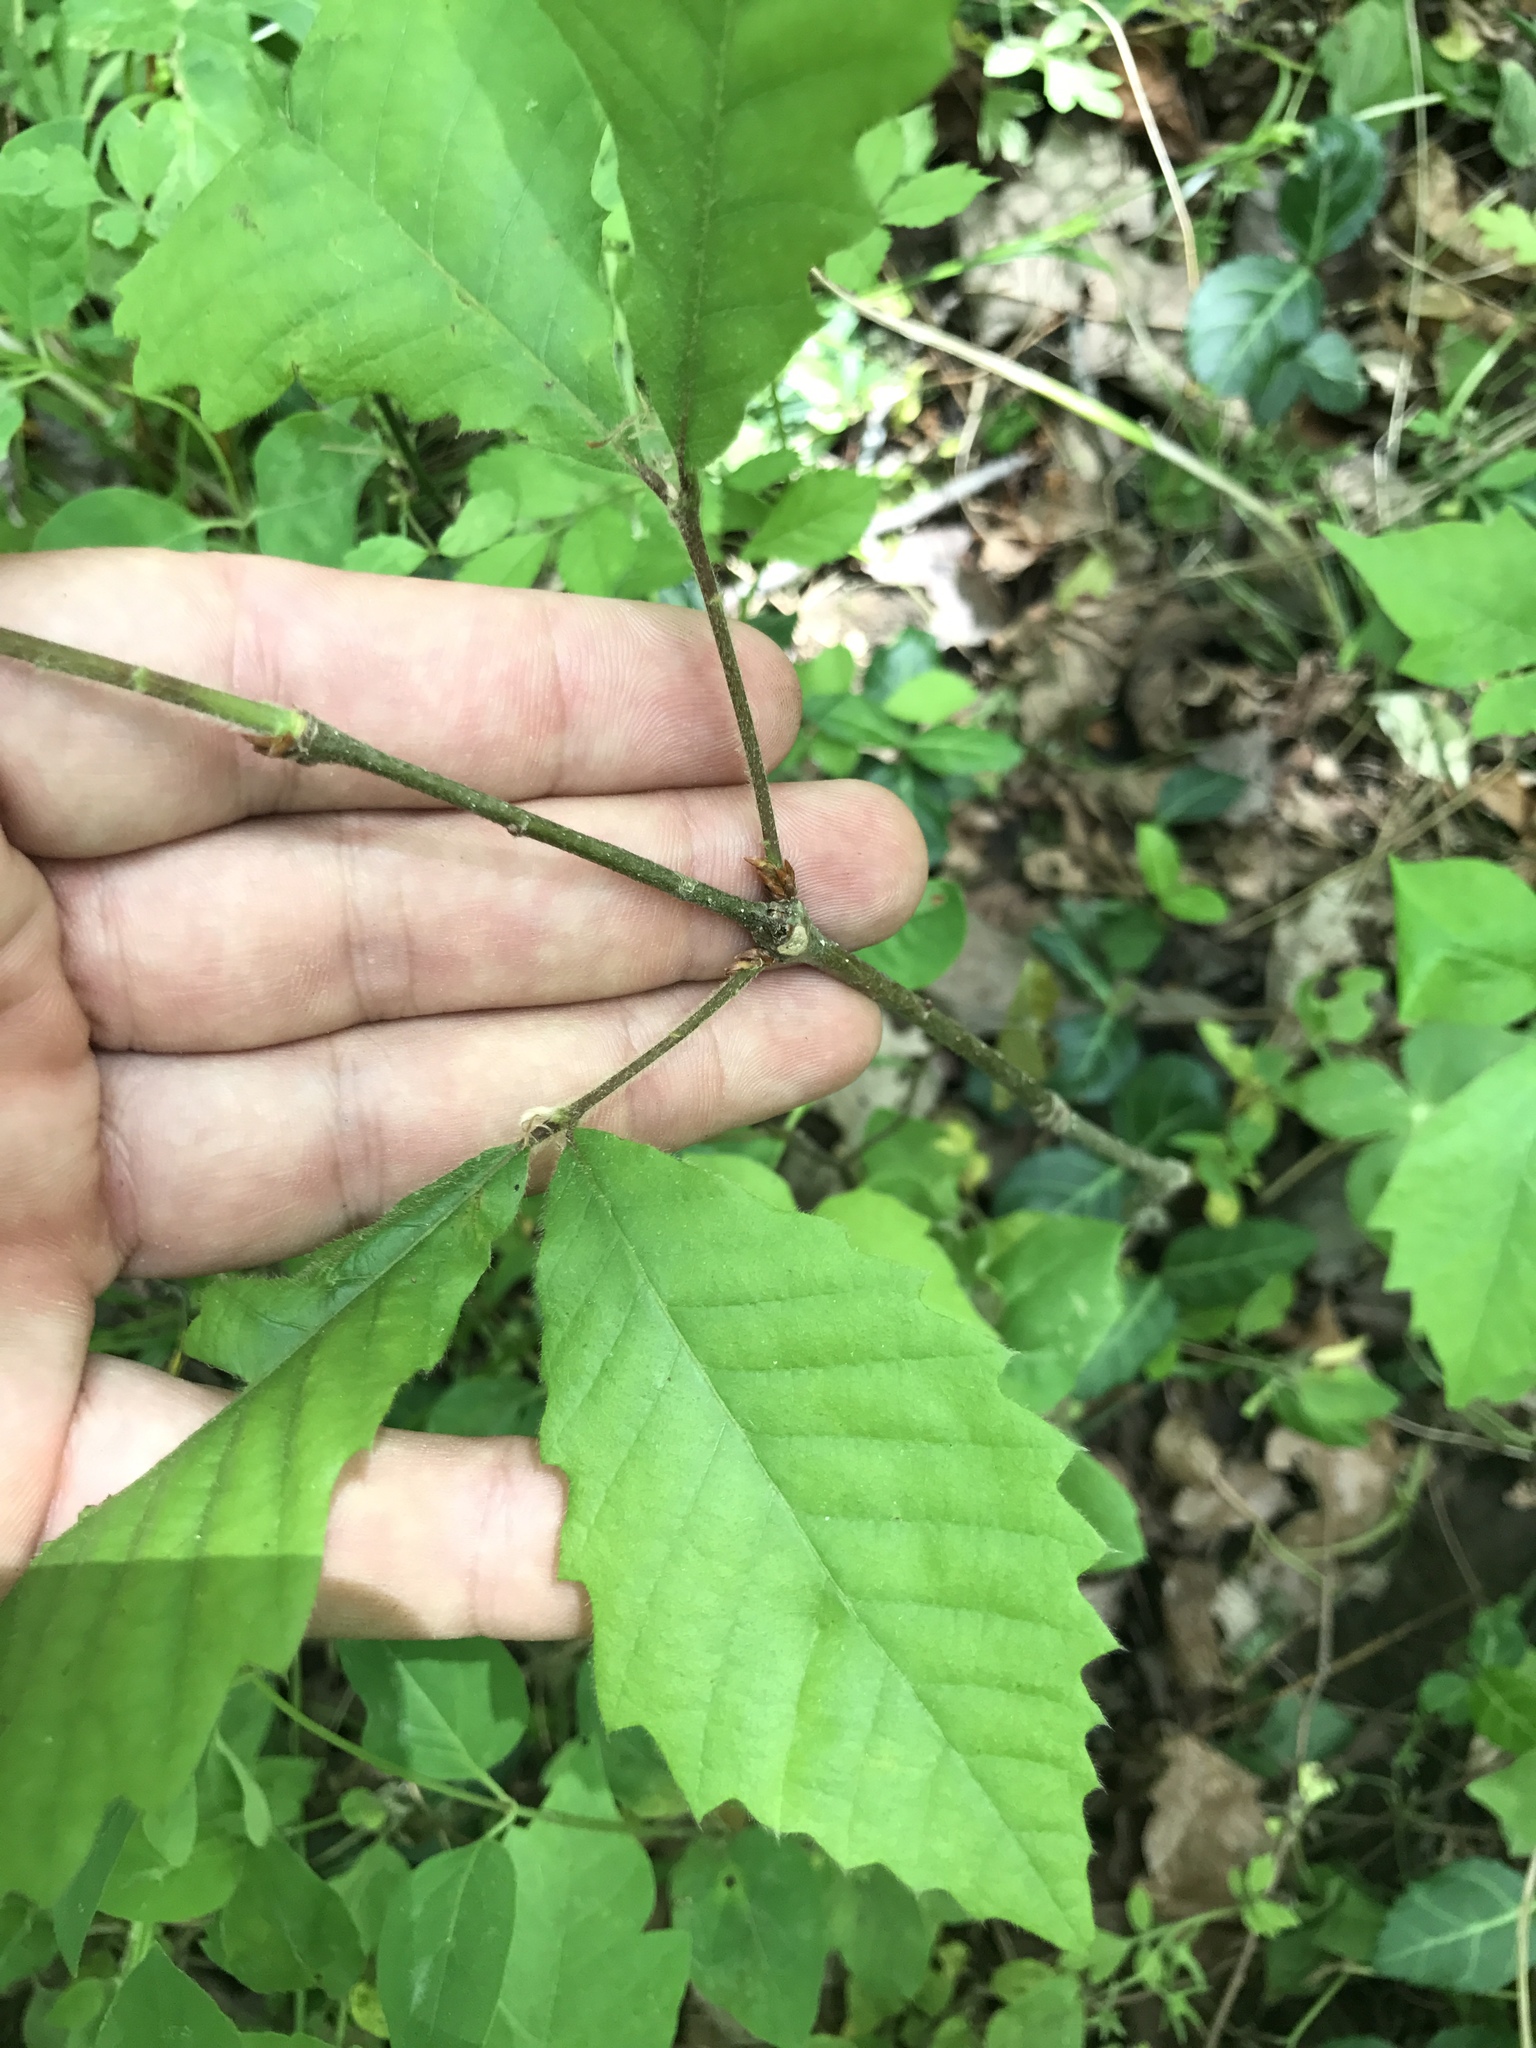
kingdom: Plantae
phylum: Tracheophyta
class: Magnoliopsida
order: Fagales
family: Fagaceae
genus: Quercus
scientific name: Quercus muehlenbergii
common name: Chinkapin oak
